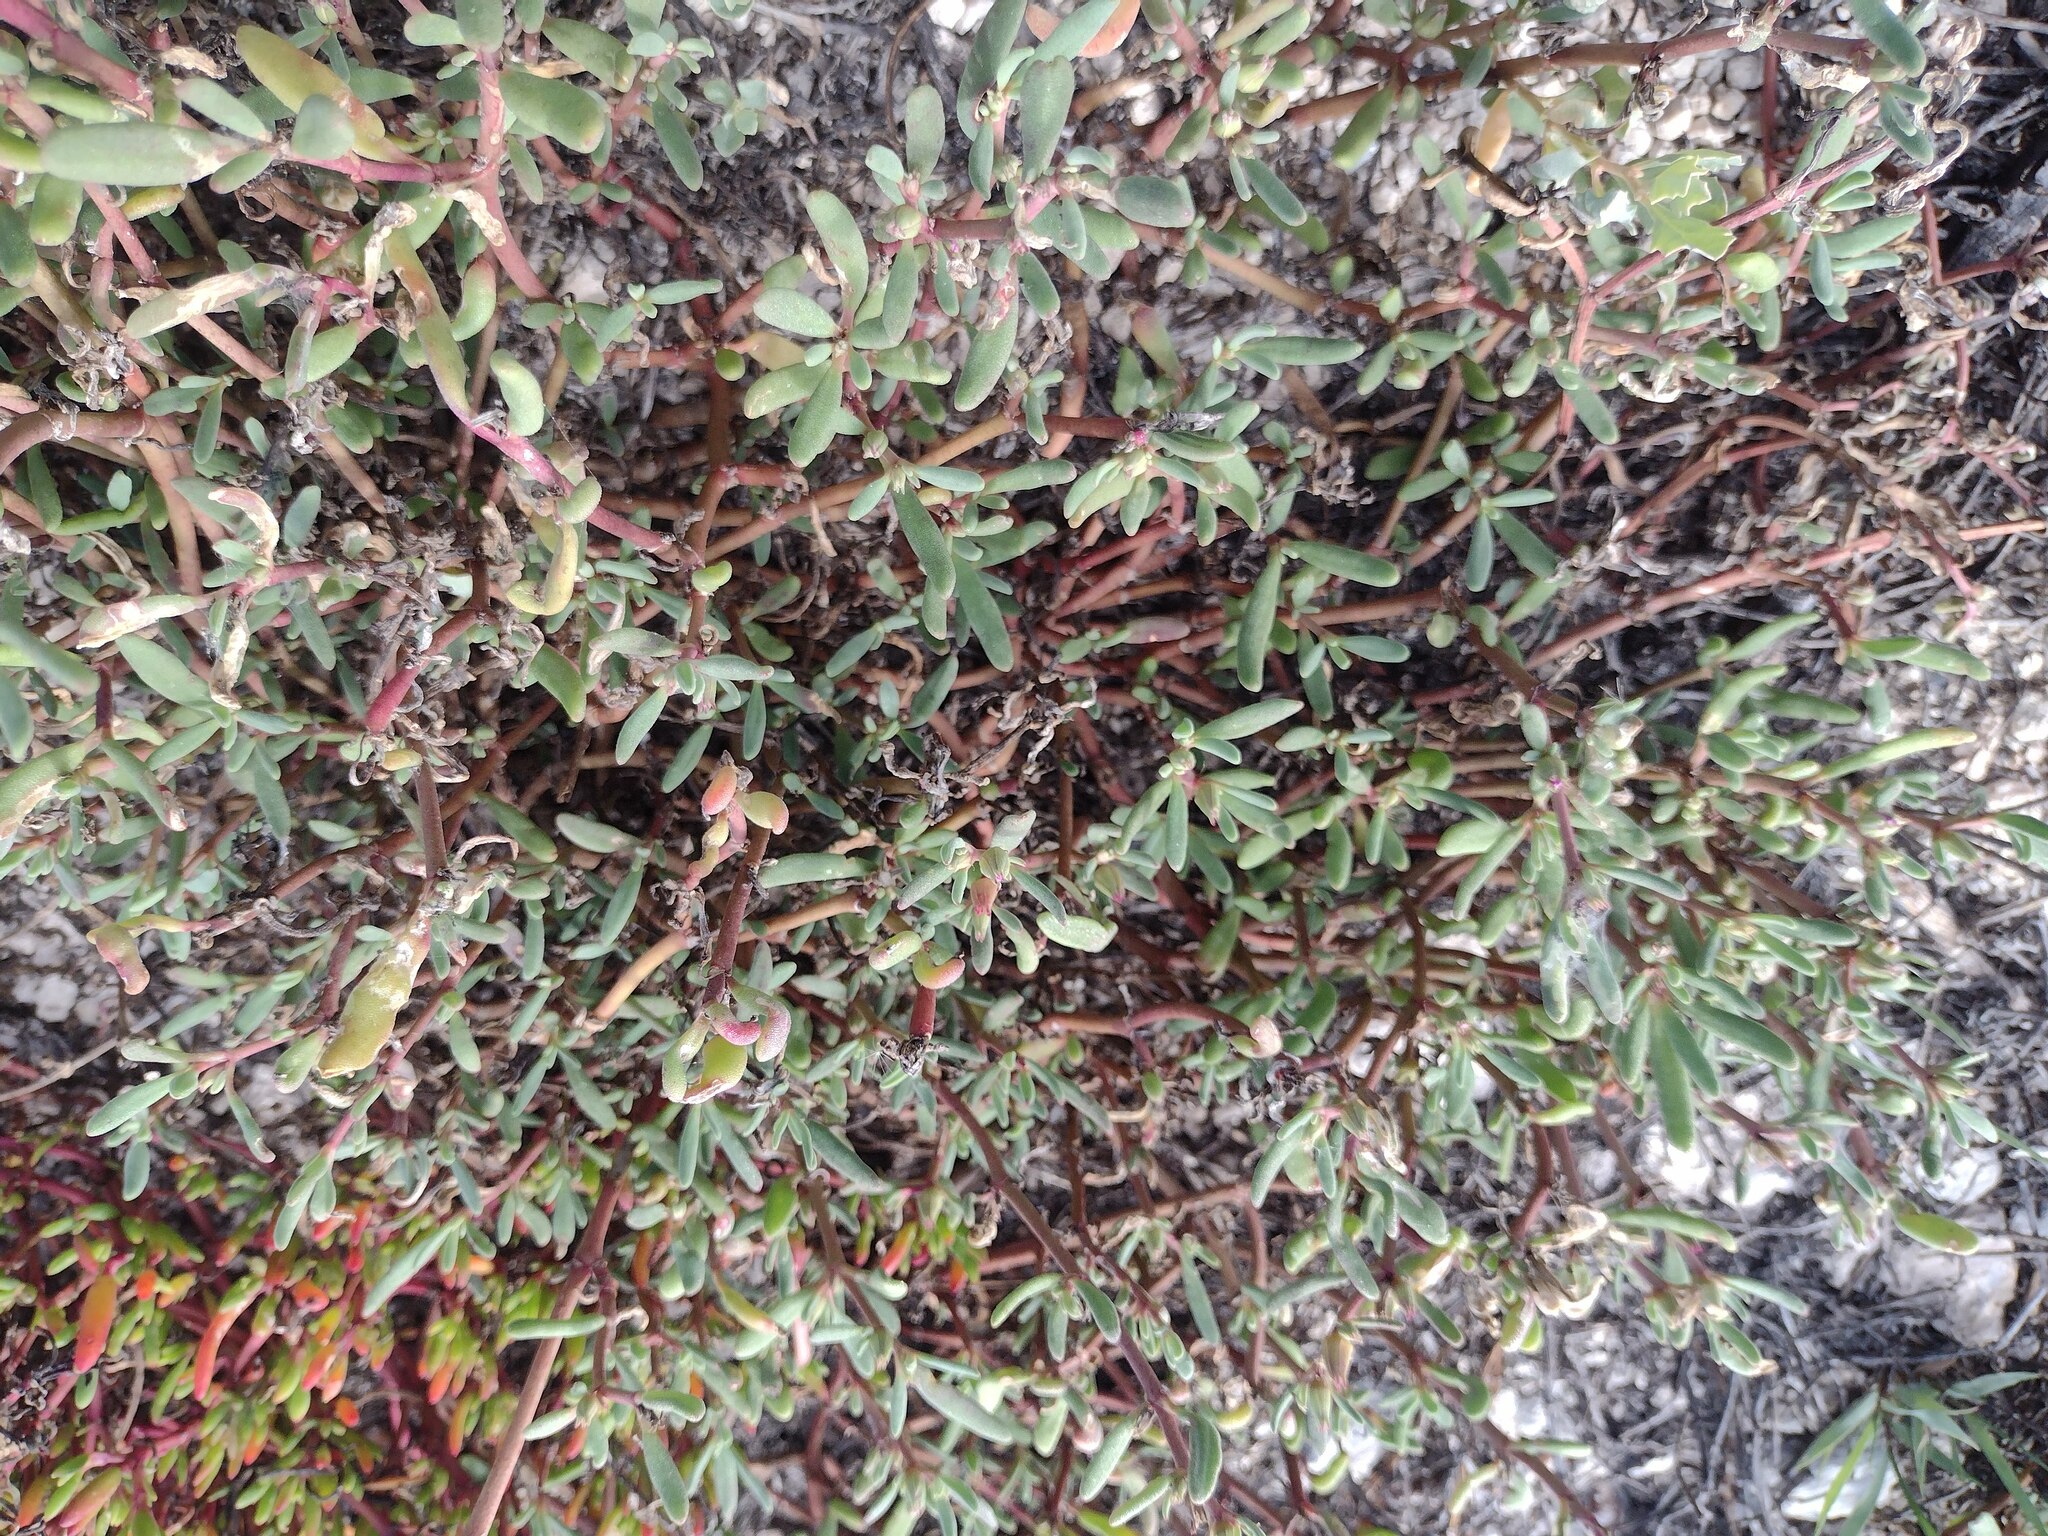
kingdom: Plantae
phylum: Tracheophyta
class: Magnoliopsida
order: Caryophyllales
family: Aizoaceae
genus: Sesuvium
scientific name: Sesuvium revolutifolium
